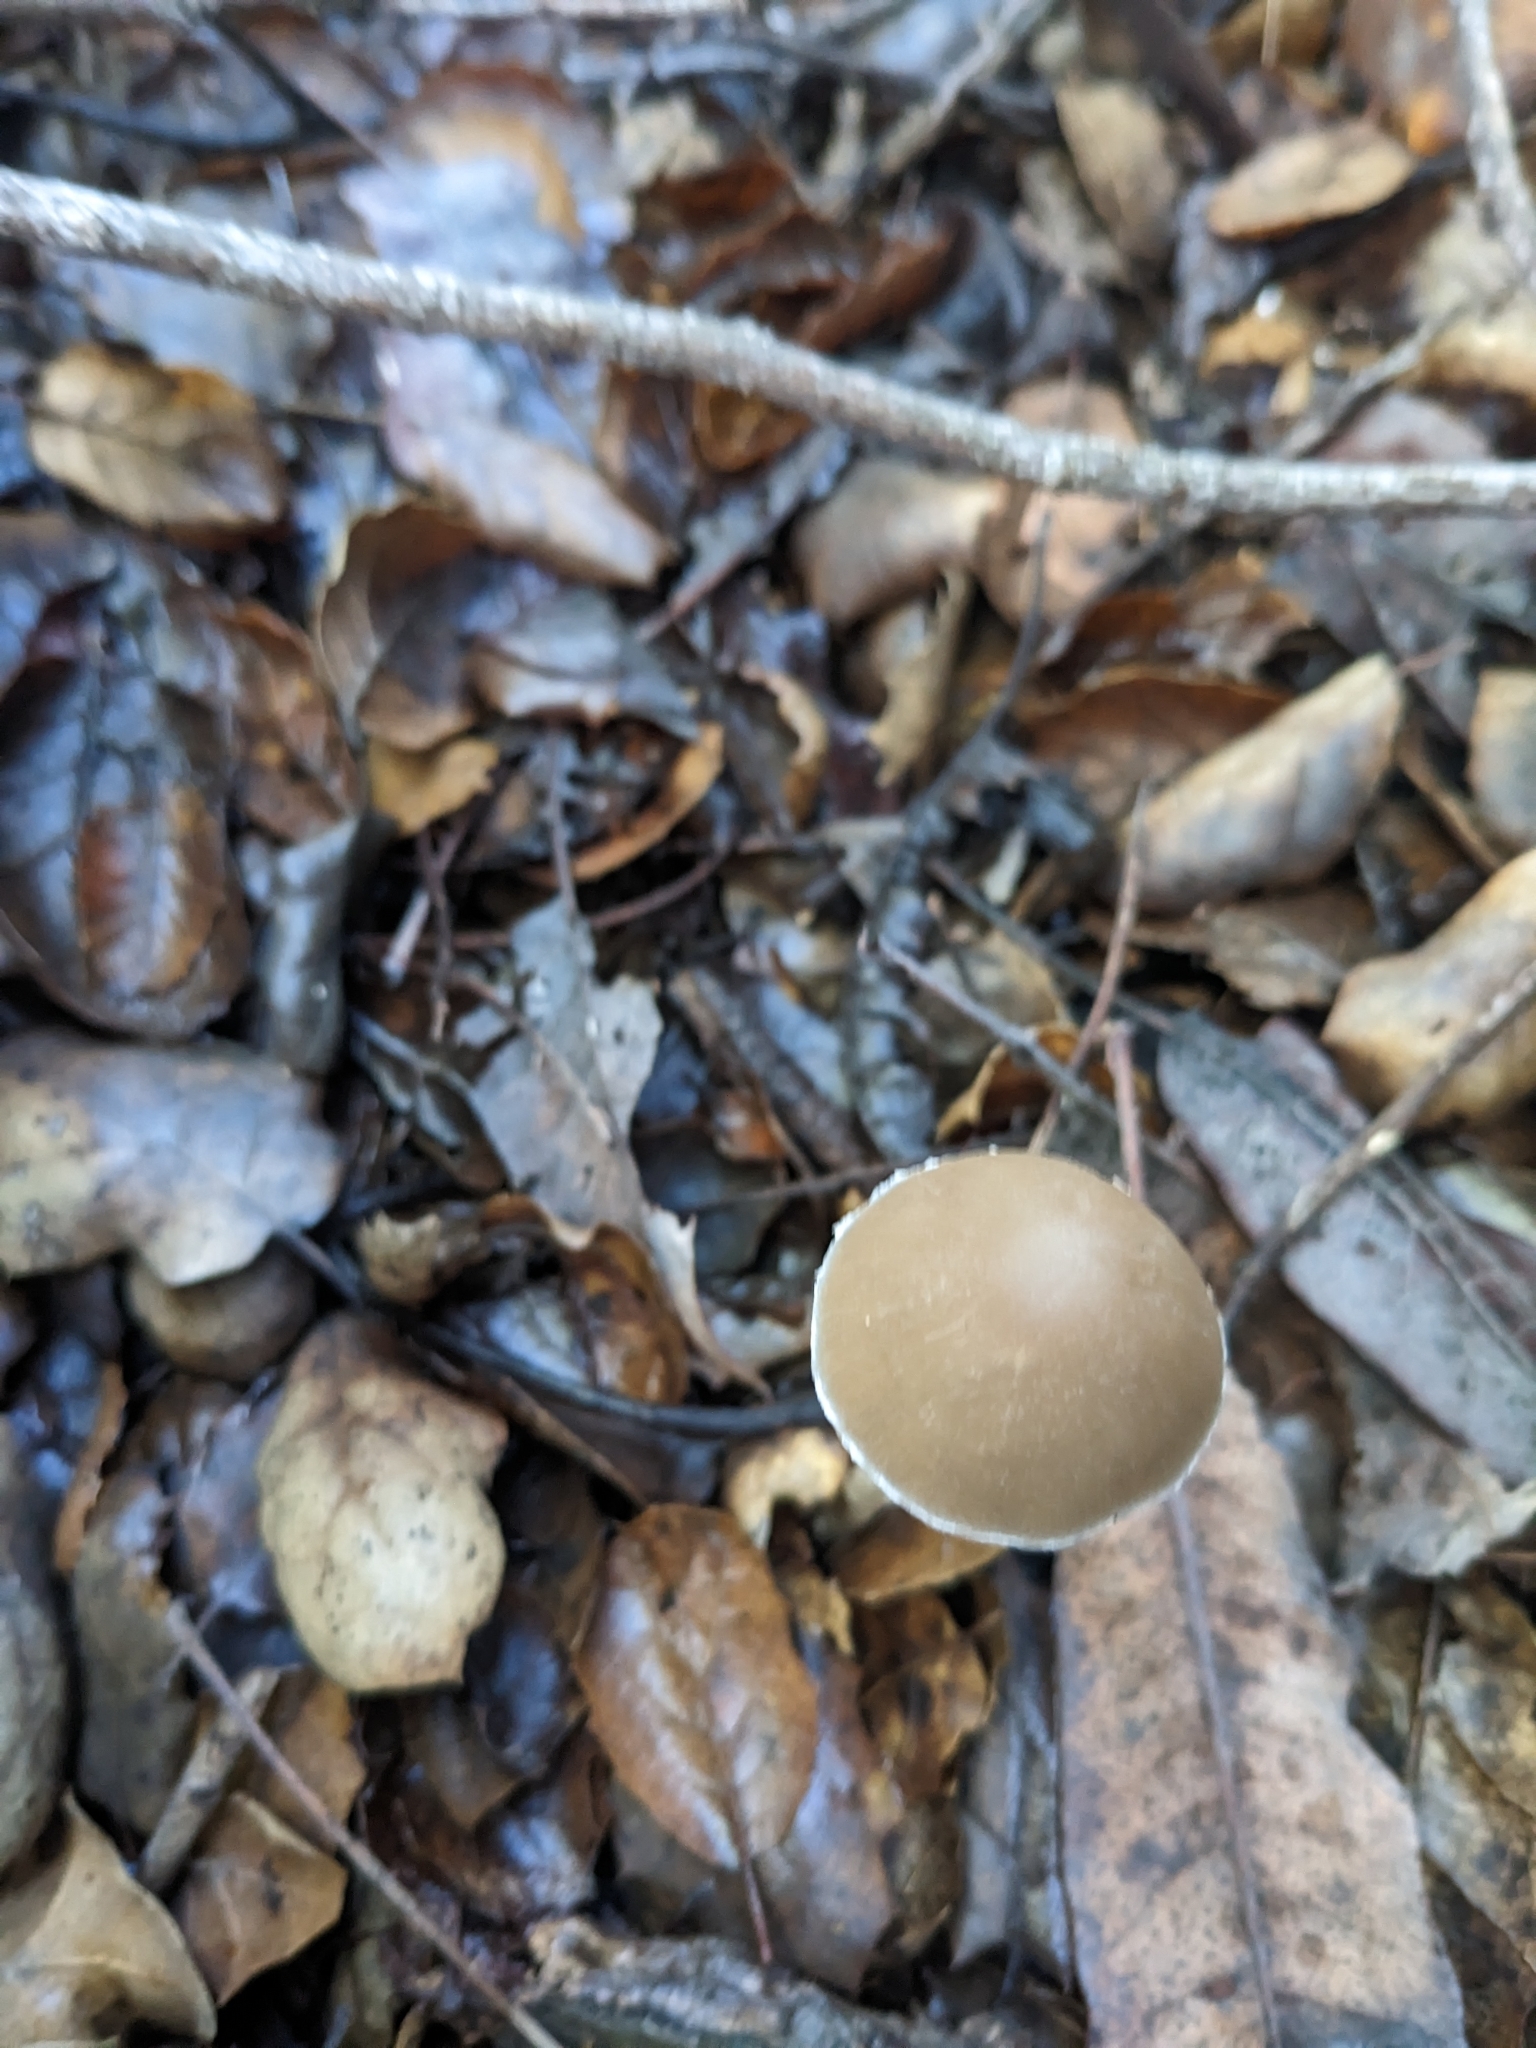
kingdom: Fungi
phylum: Basidiomycota
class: Agaricomycetes
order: Agaricales
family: Psathyrellaceae
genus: Psathyrella
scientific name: Psathyrella longipes
